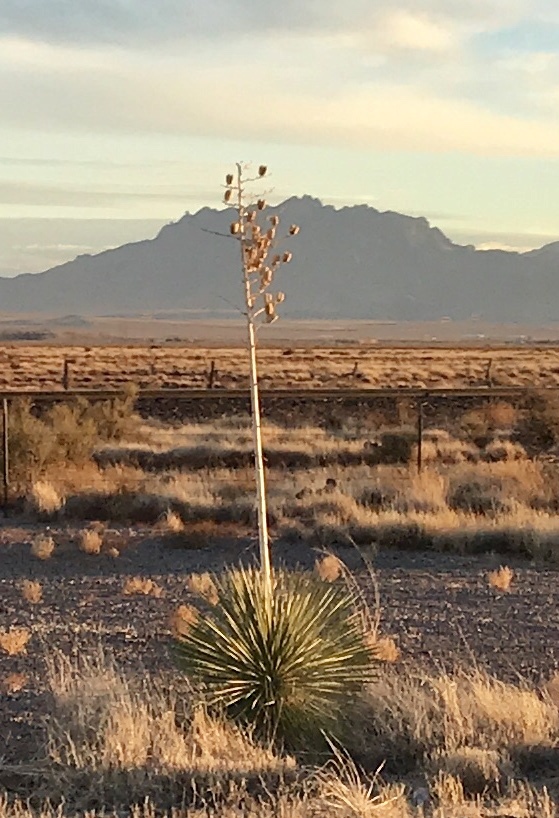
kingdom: Plantae
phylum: Tracheophyta
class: Liliopsida
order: Asparagales
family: Asparagaceae
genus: Yucca
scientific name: Yucca elata
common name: Palmella
